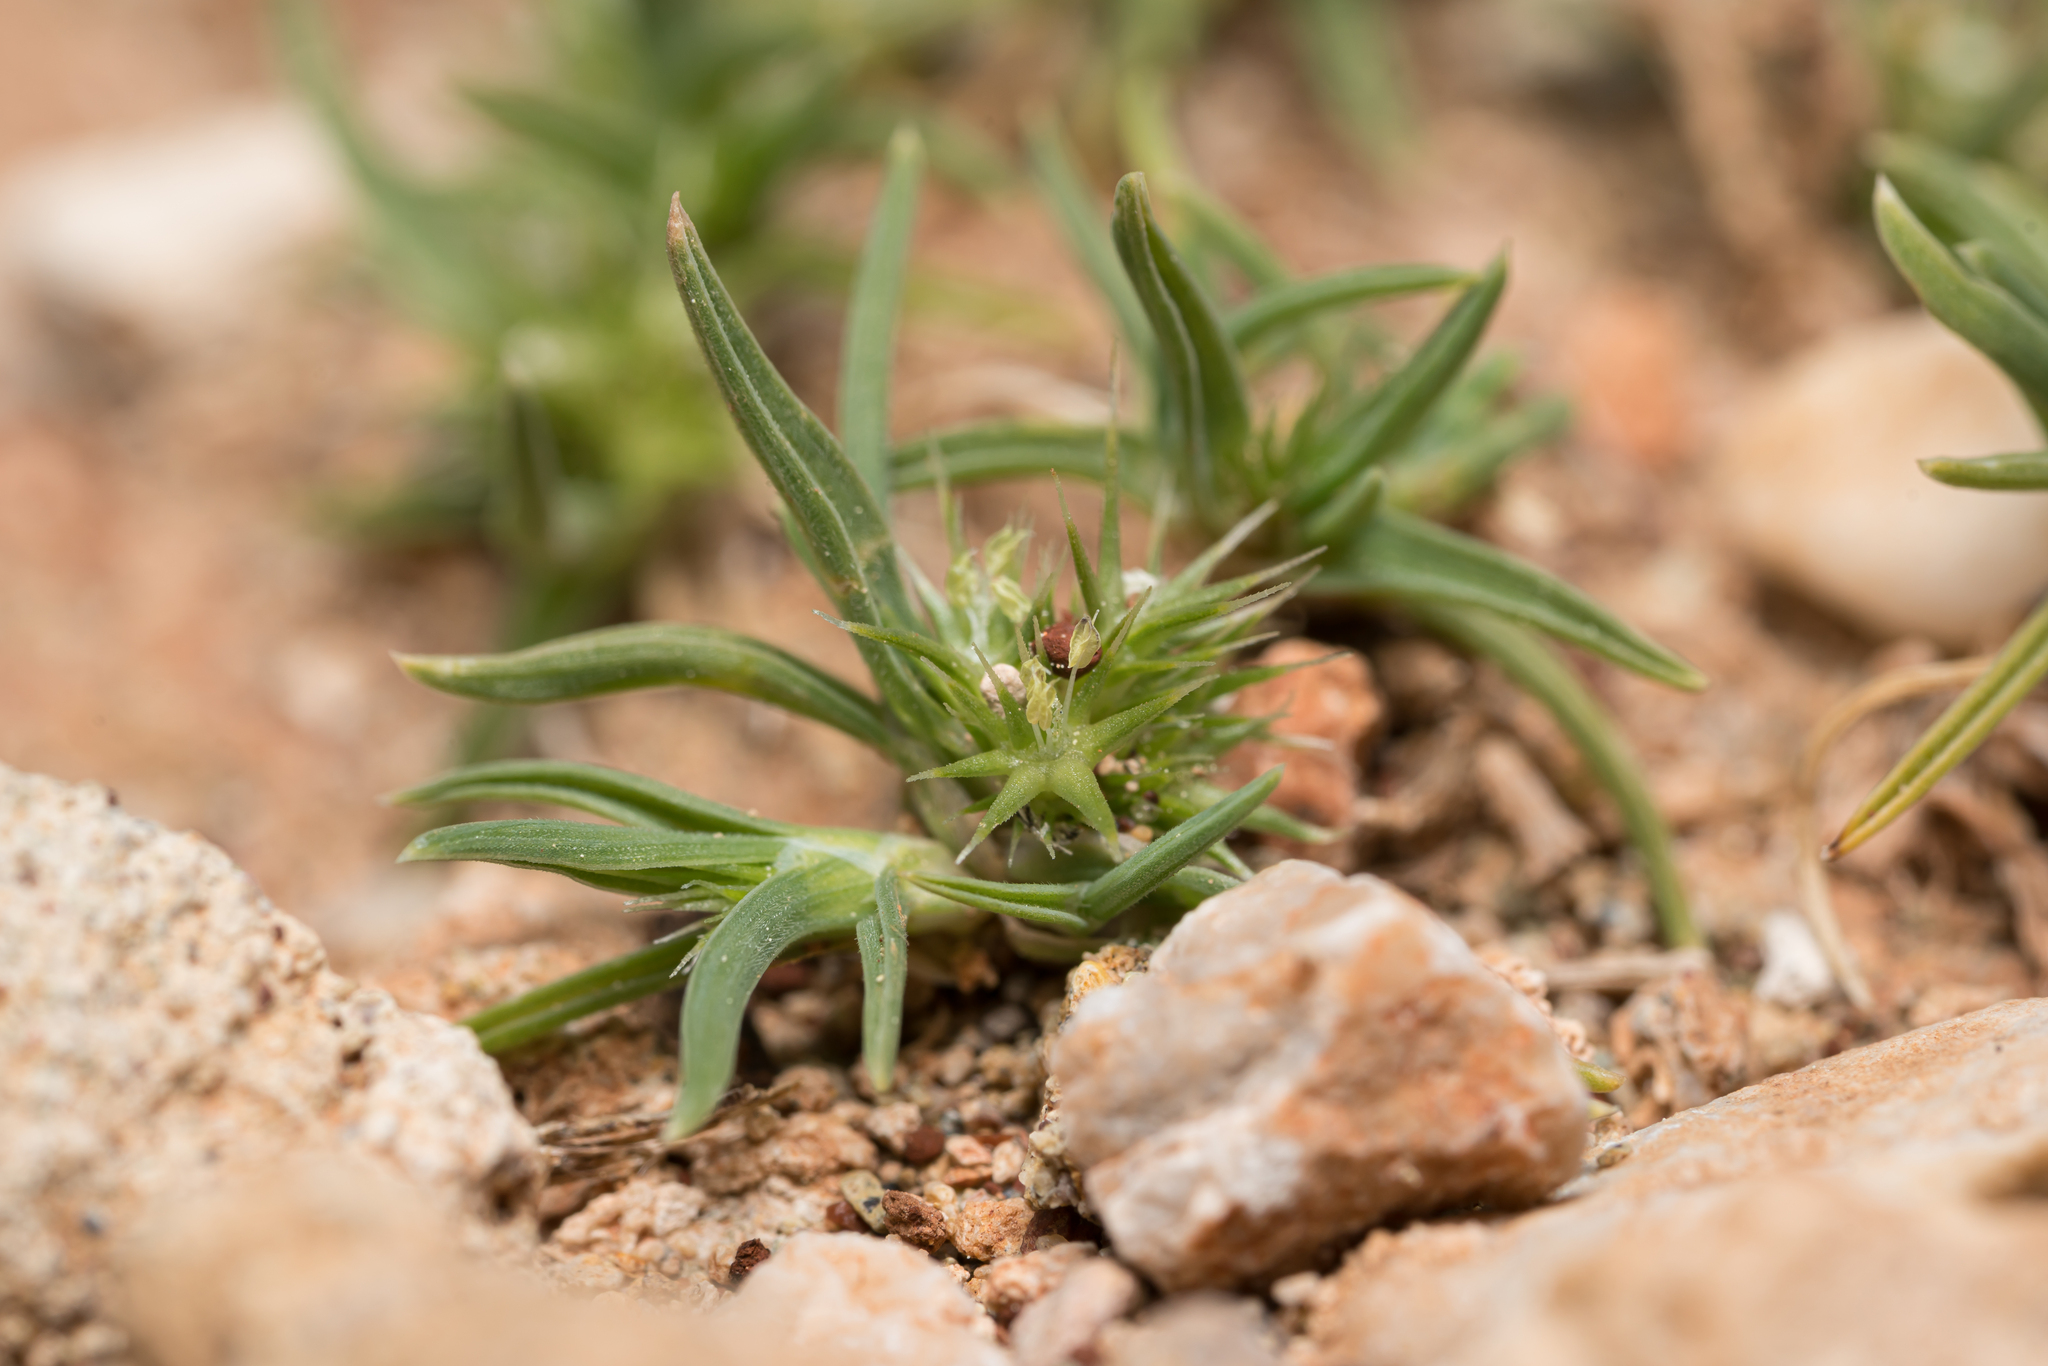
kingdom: Plantae
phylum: Tracheophyta
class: Liliopsida
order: Poales
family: Poaceae
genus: Echinaria
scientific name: Echinaria capitata
